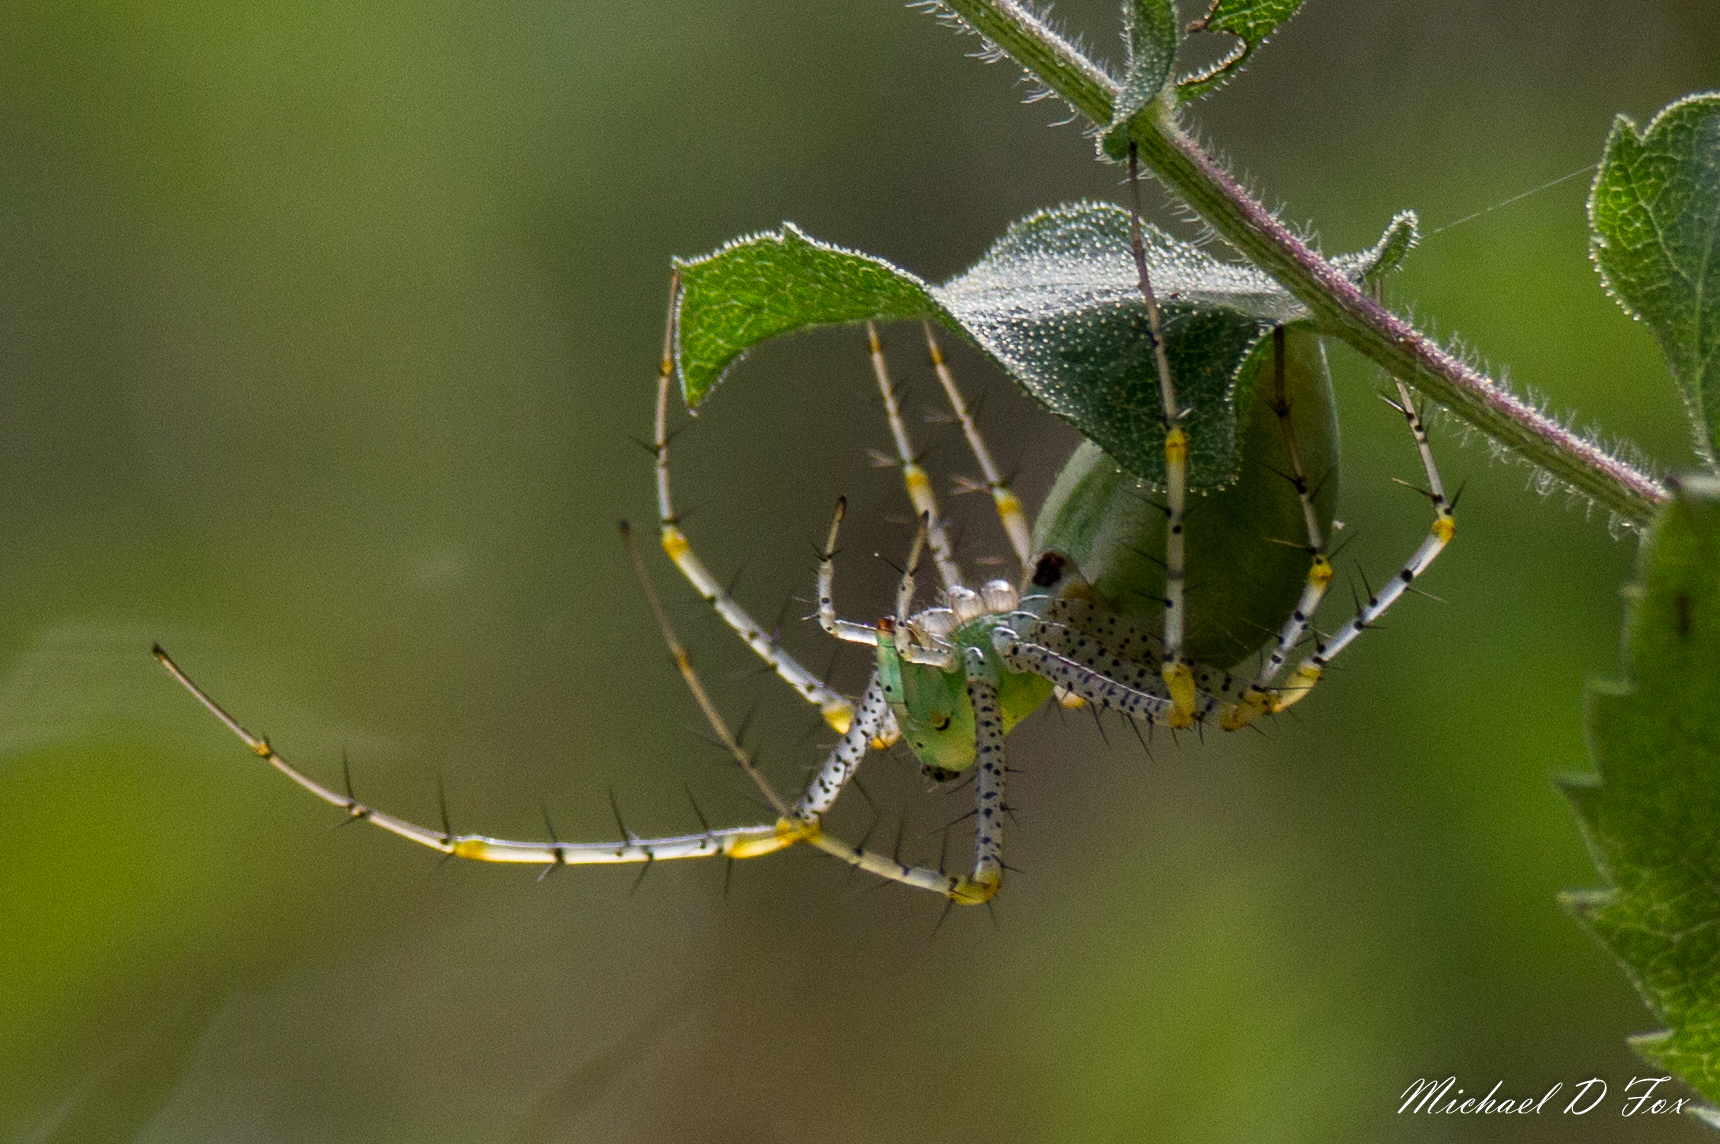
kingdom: Animalia
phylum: Arthropoda
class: Arachnida
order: Araneae
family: Oxyopidae
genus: Peucetia
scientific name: Peucetia viridans
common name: Lynx spiders
